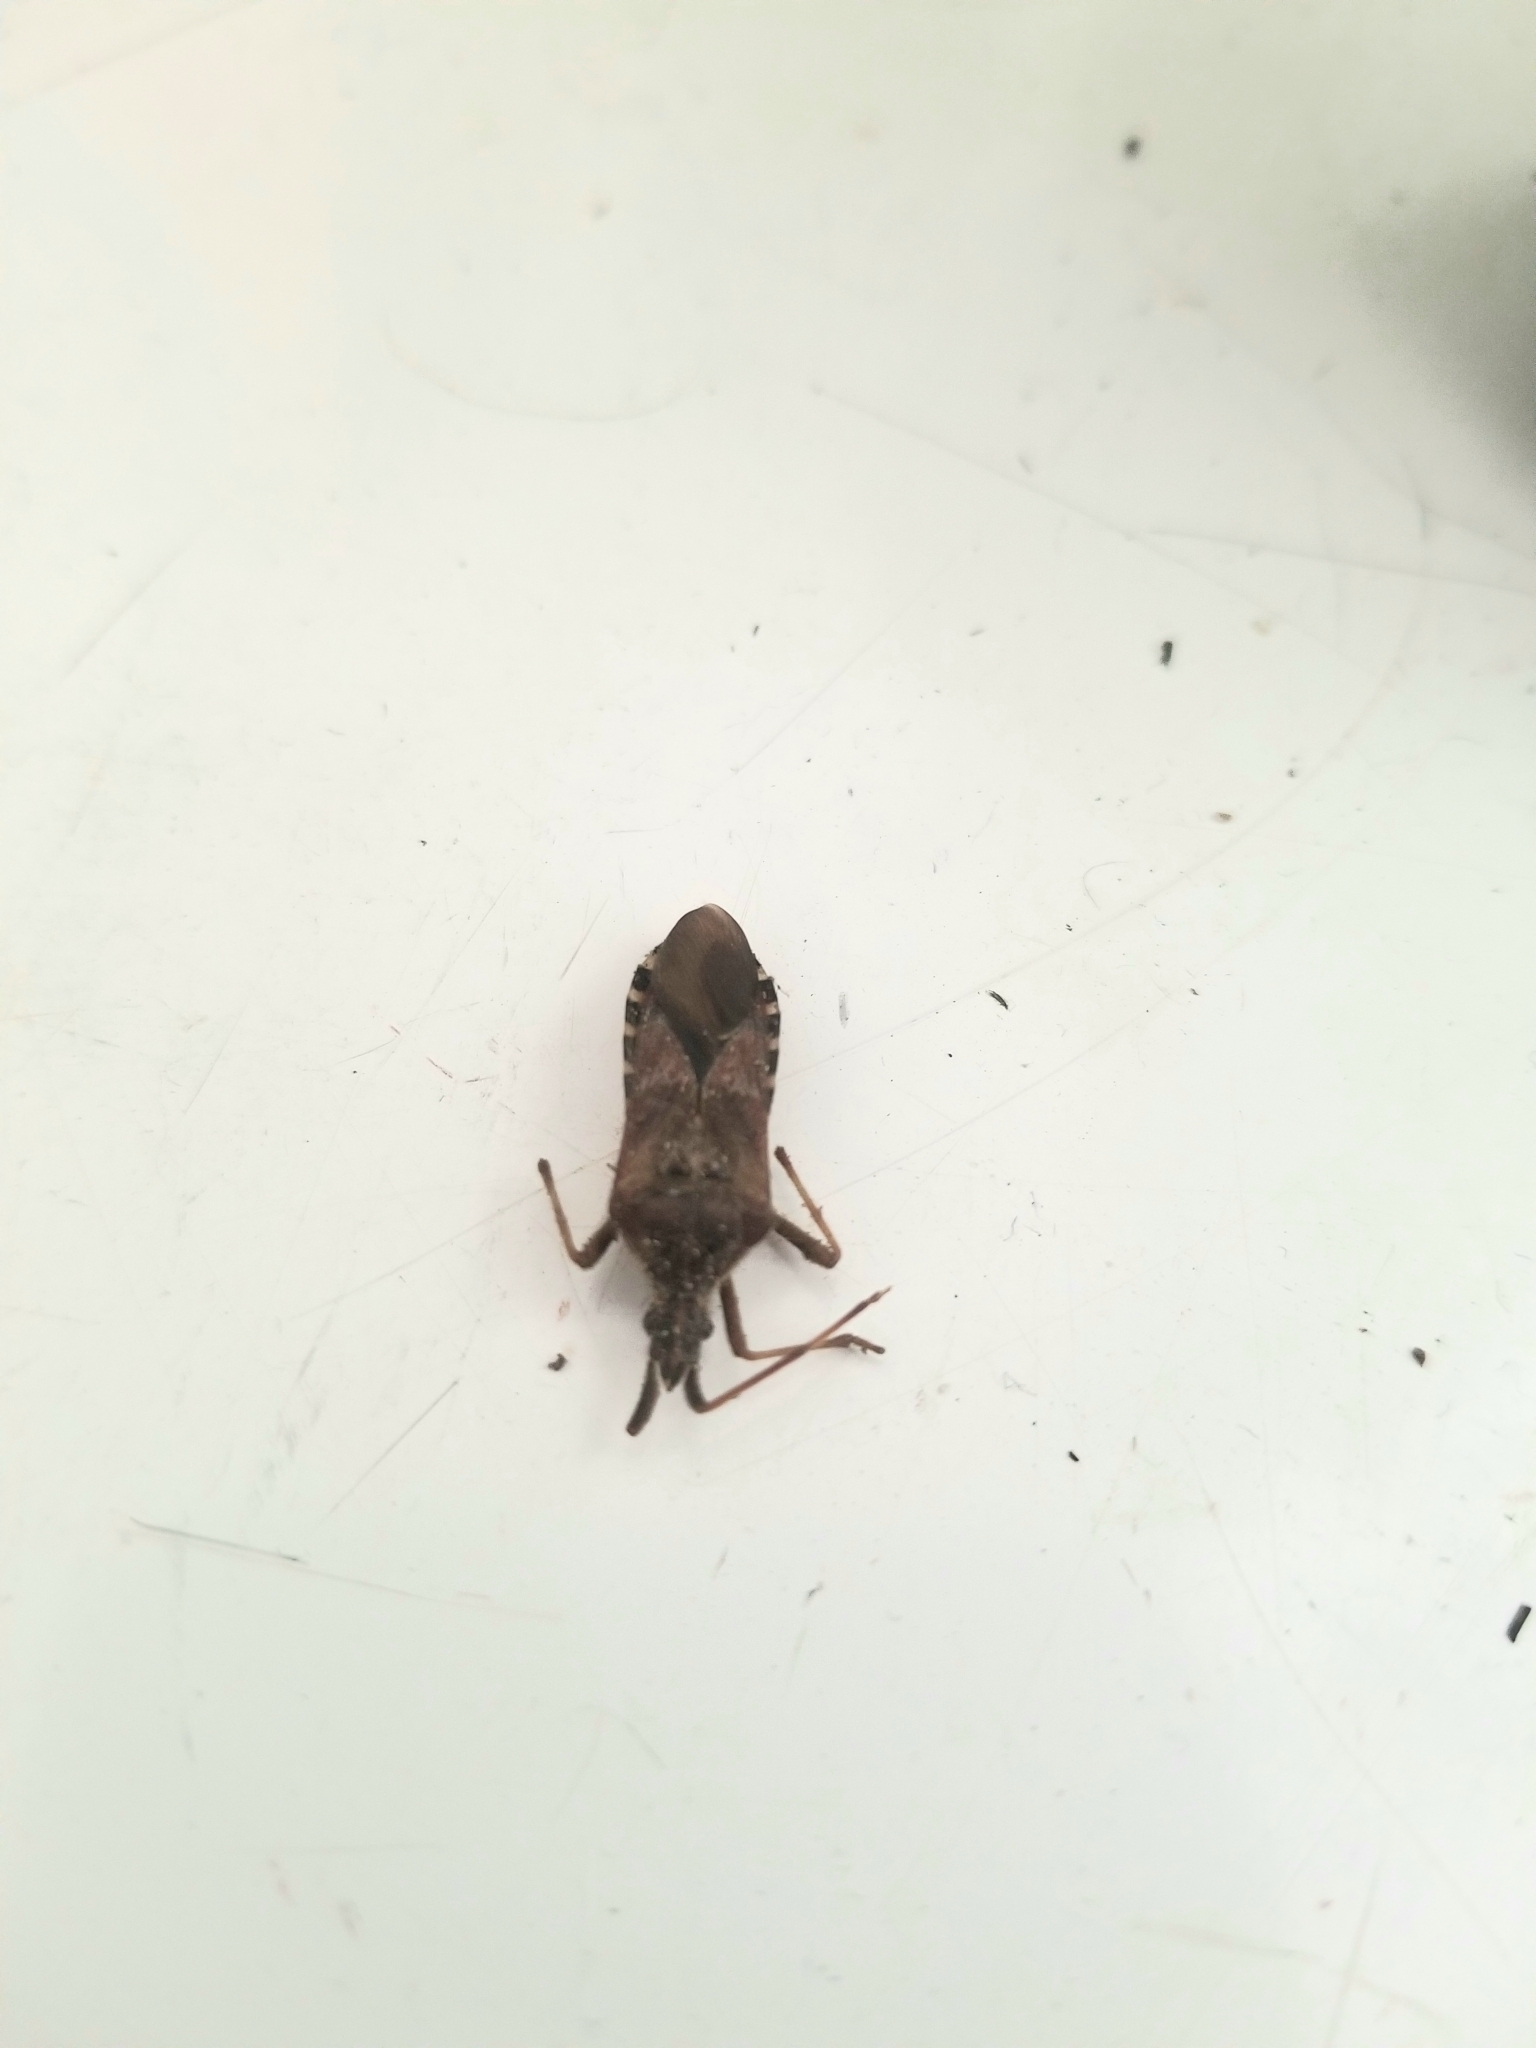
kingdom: Animalia
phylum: Arthropoda
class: Insecta
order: Hemiptera
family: Coreidae
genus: Leptoglossus
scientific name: Leptoglossus occidentalis
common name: Western conifer-seed bug
